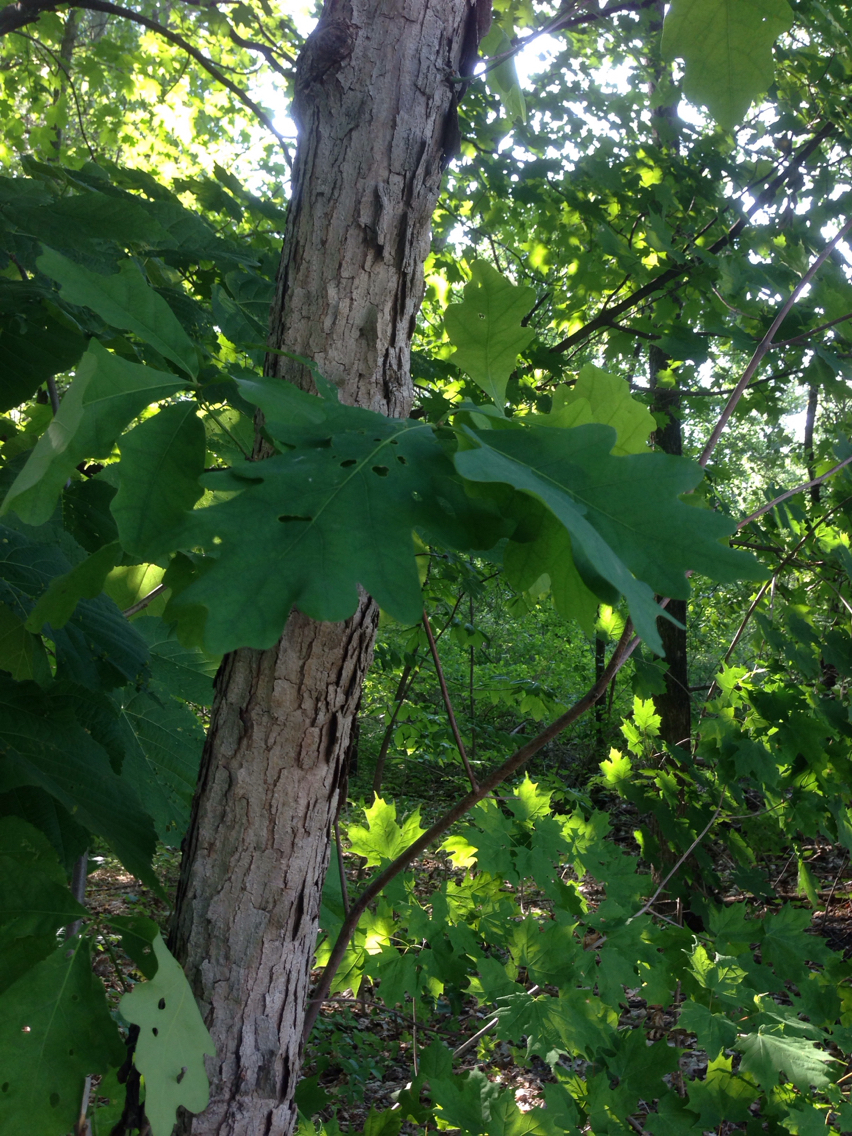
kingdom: Plantae
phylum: Tracheophyta
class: Magnoliopsida
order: Fagales
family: Fagaceae
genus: Quercus
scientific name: Quercus alba
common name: White oak
